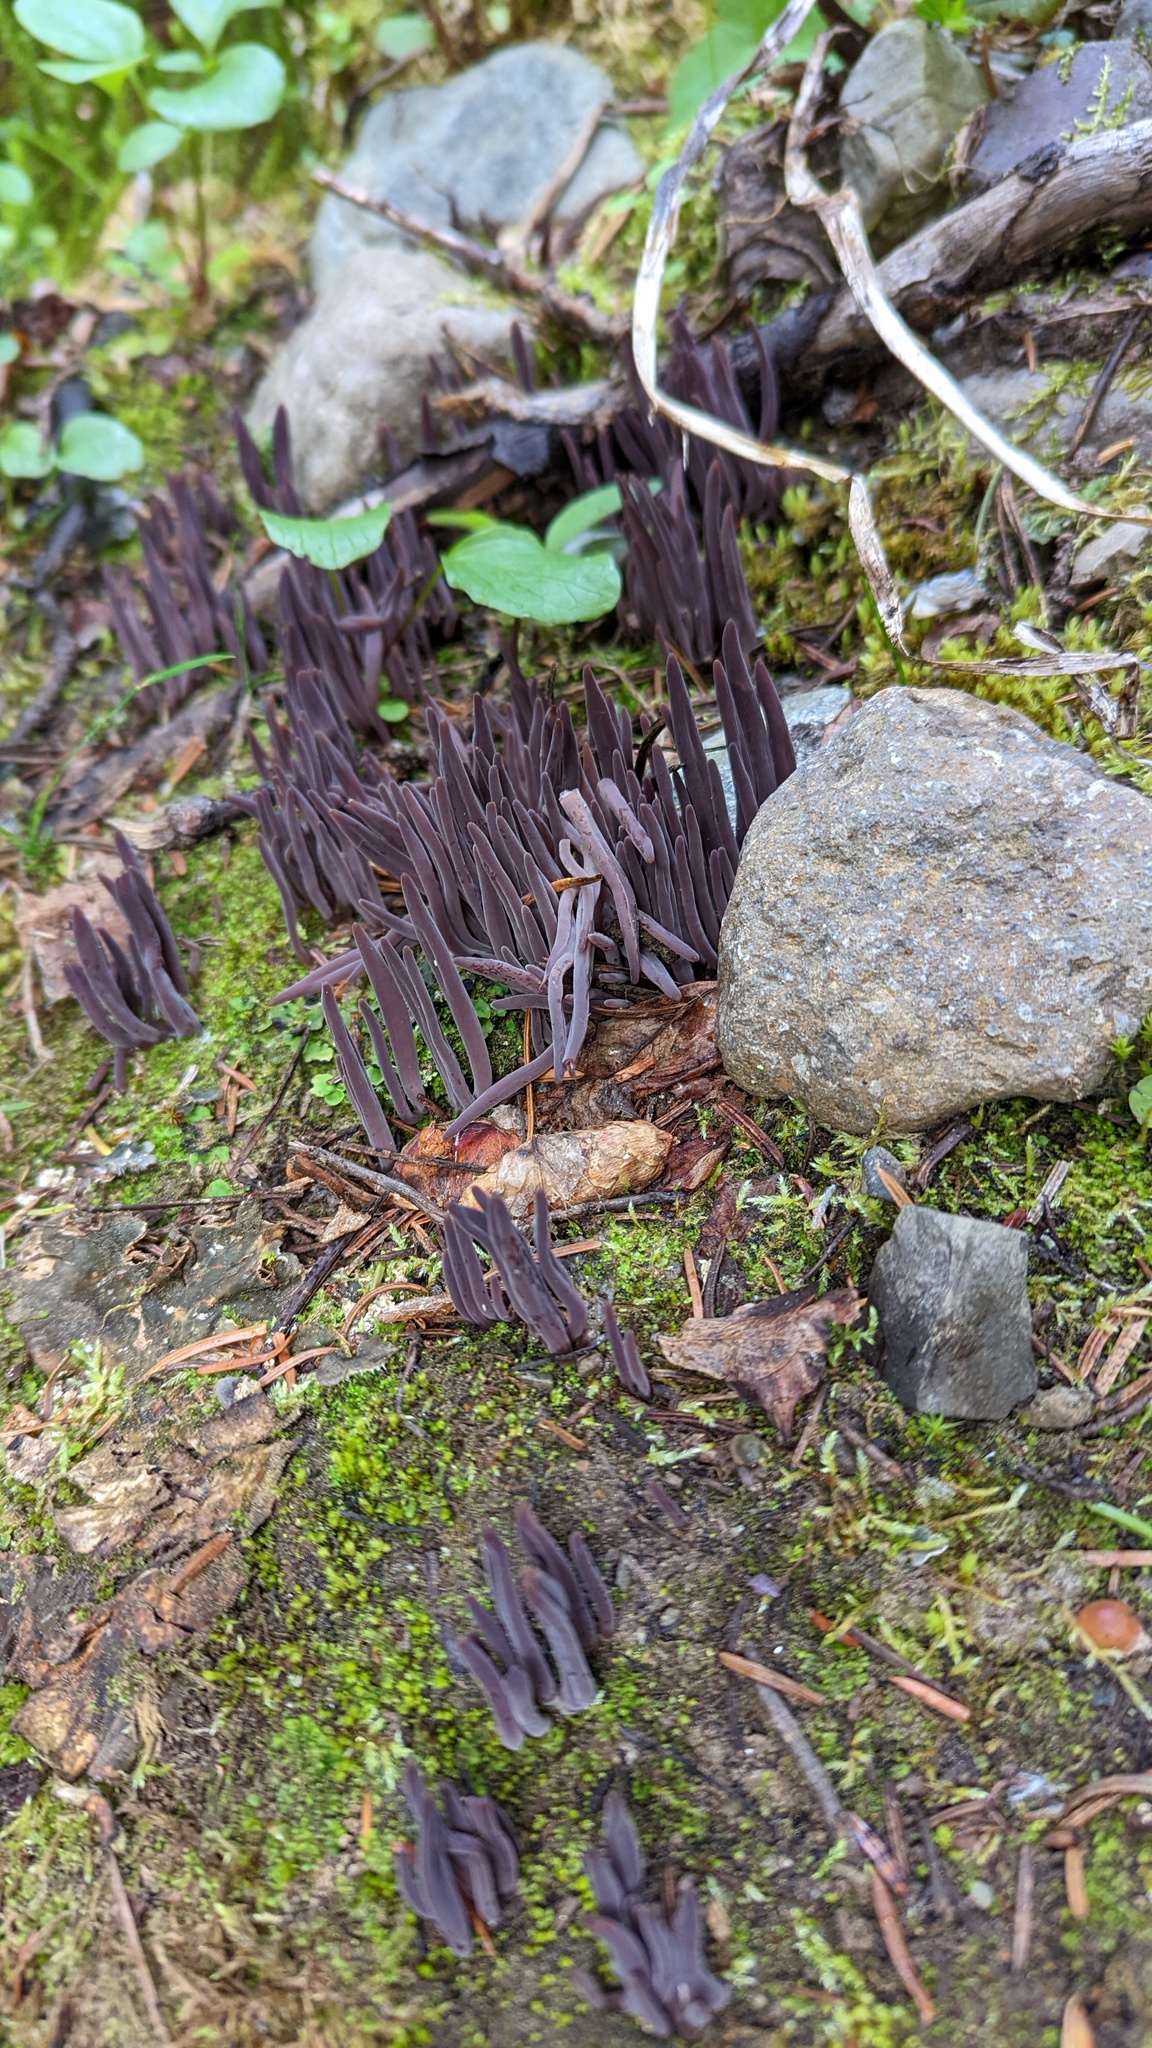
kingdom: Fungi
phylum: Basidiomycota
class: Agaricomycetes
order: Hymenochaetales
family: Rickenellaceae
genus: Alloclavaria
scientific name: Alloclavaria purpurea
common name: Purple spindles
